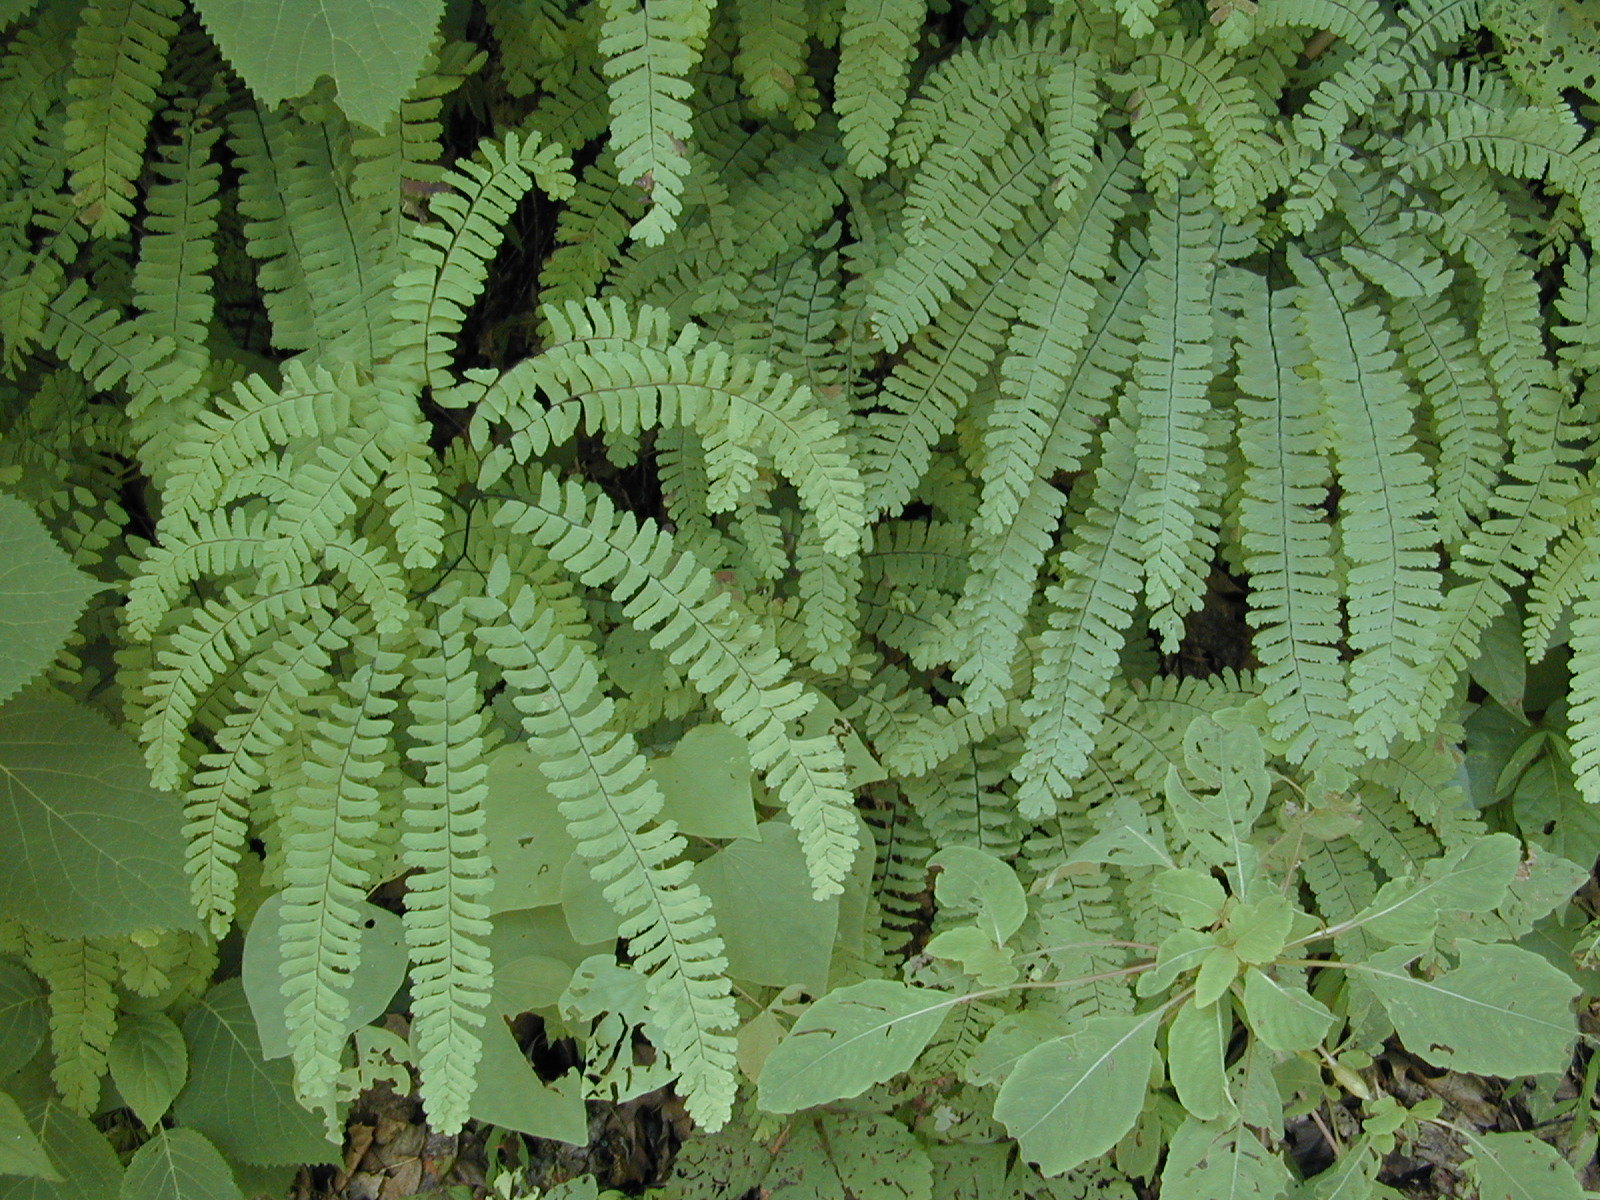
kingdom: Plantae
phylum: Tracheophyta
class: Polypodiopsida
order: Polypodiales
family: Pteridaceae
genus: Adiantum
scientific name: Adiantum pedatum
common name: Five-finger fern
